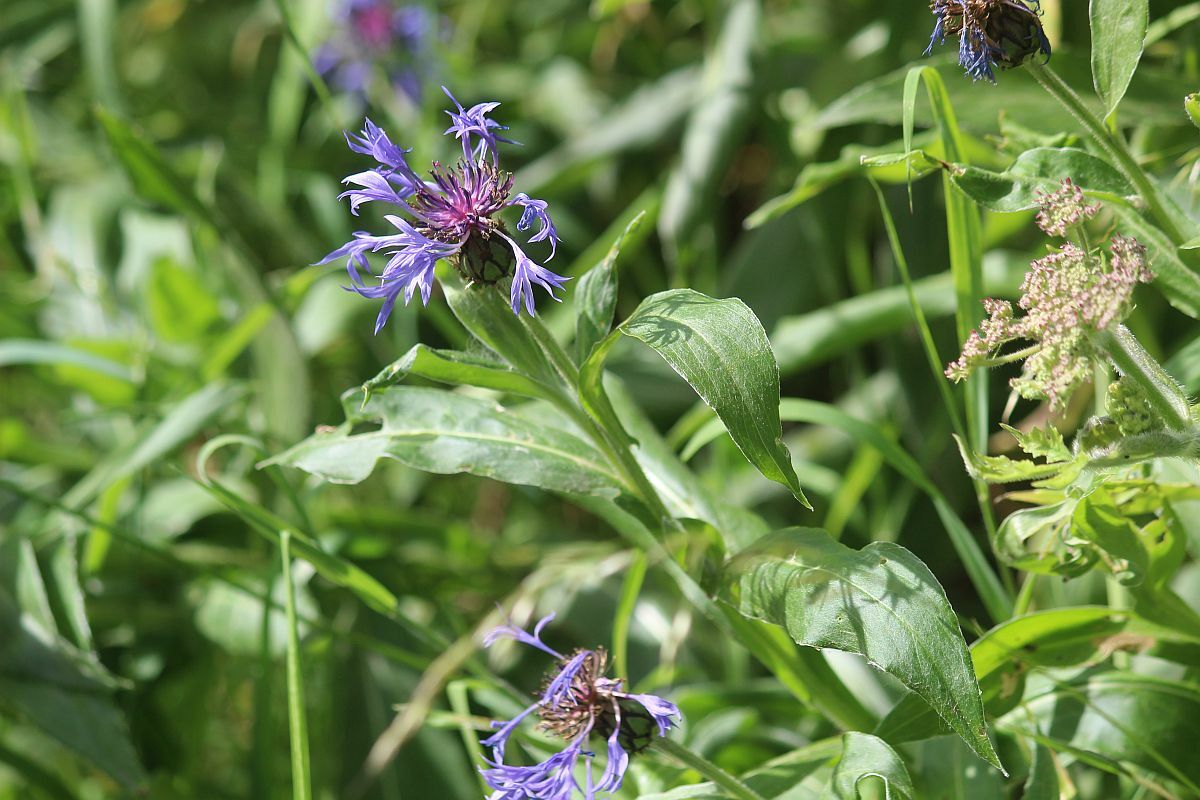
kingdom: Plantae
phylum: Tracheophyta
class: Magnoliopsida
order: Asterales
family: Asteraceae
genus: Centaurea
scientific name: Centaurea montana
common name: Perennial cornflower
